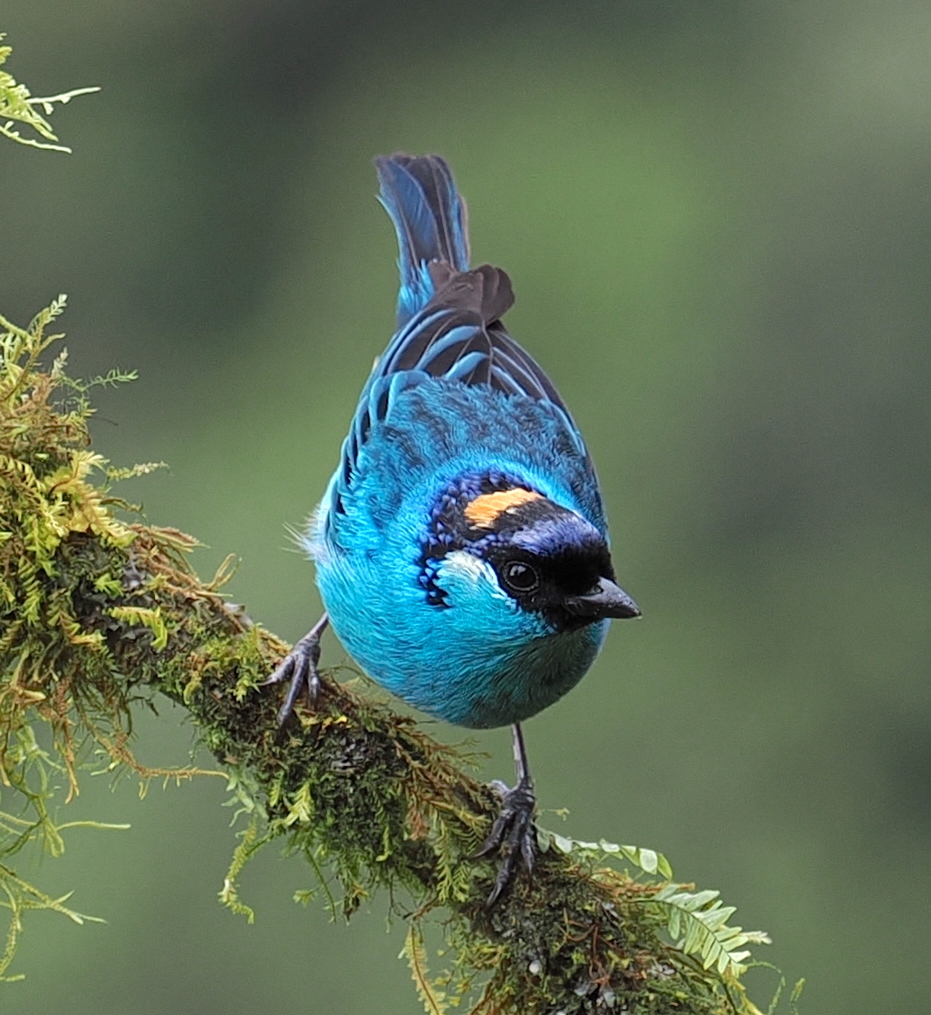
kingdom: Animalia
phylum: Chordata
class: Aves
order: Passeriformes
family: Thraupidae
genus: Chalcothraupis
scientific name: Chalcothraupis ruficervix
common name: Golden-naped tanager
